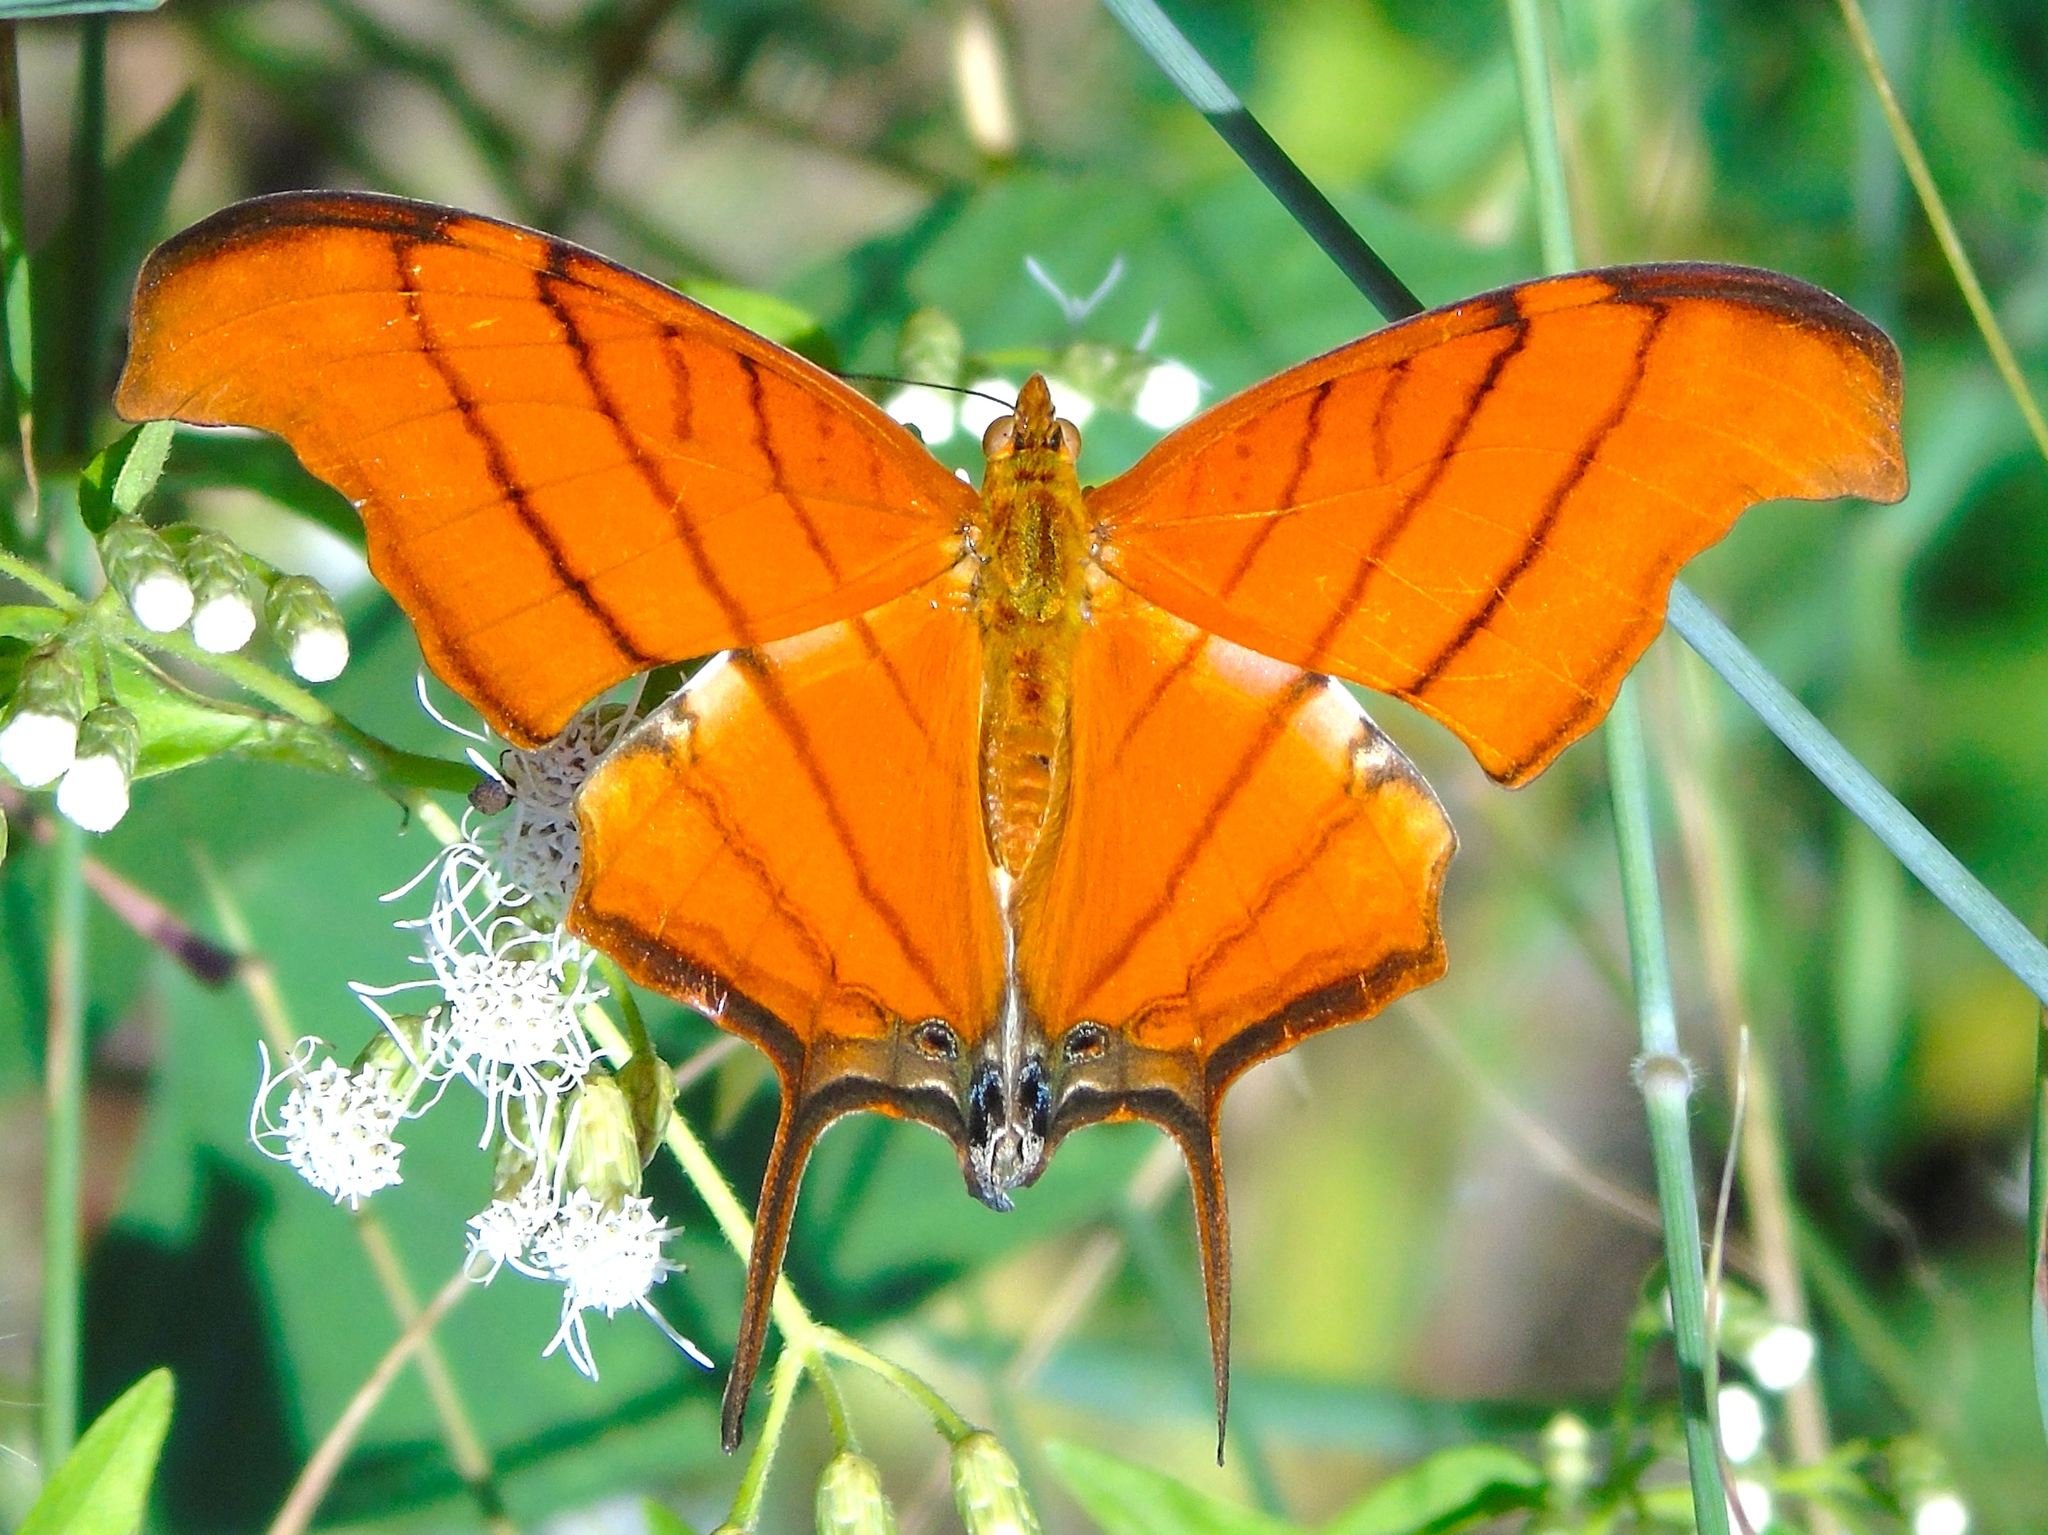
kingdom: Animalia
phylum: Arthropoda
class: Insecta
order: Lepidoptera
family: Nymphalidae
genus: Marpesia
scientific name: Marpesia petreus
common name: Red dagger wing
